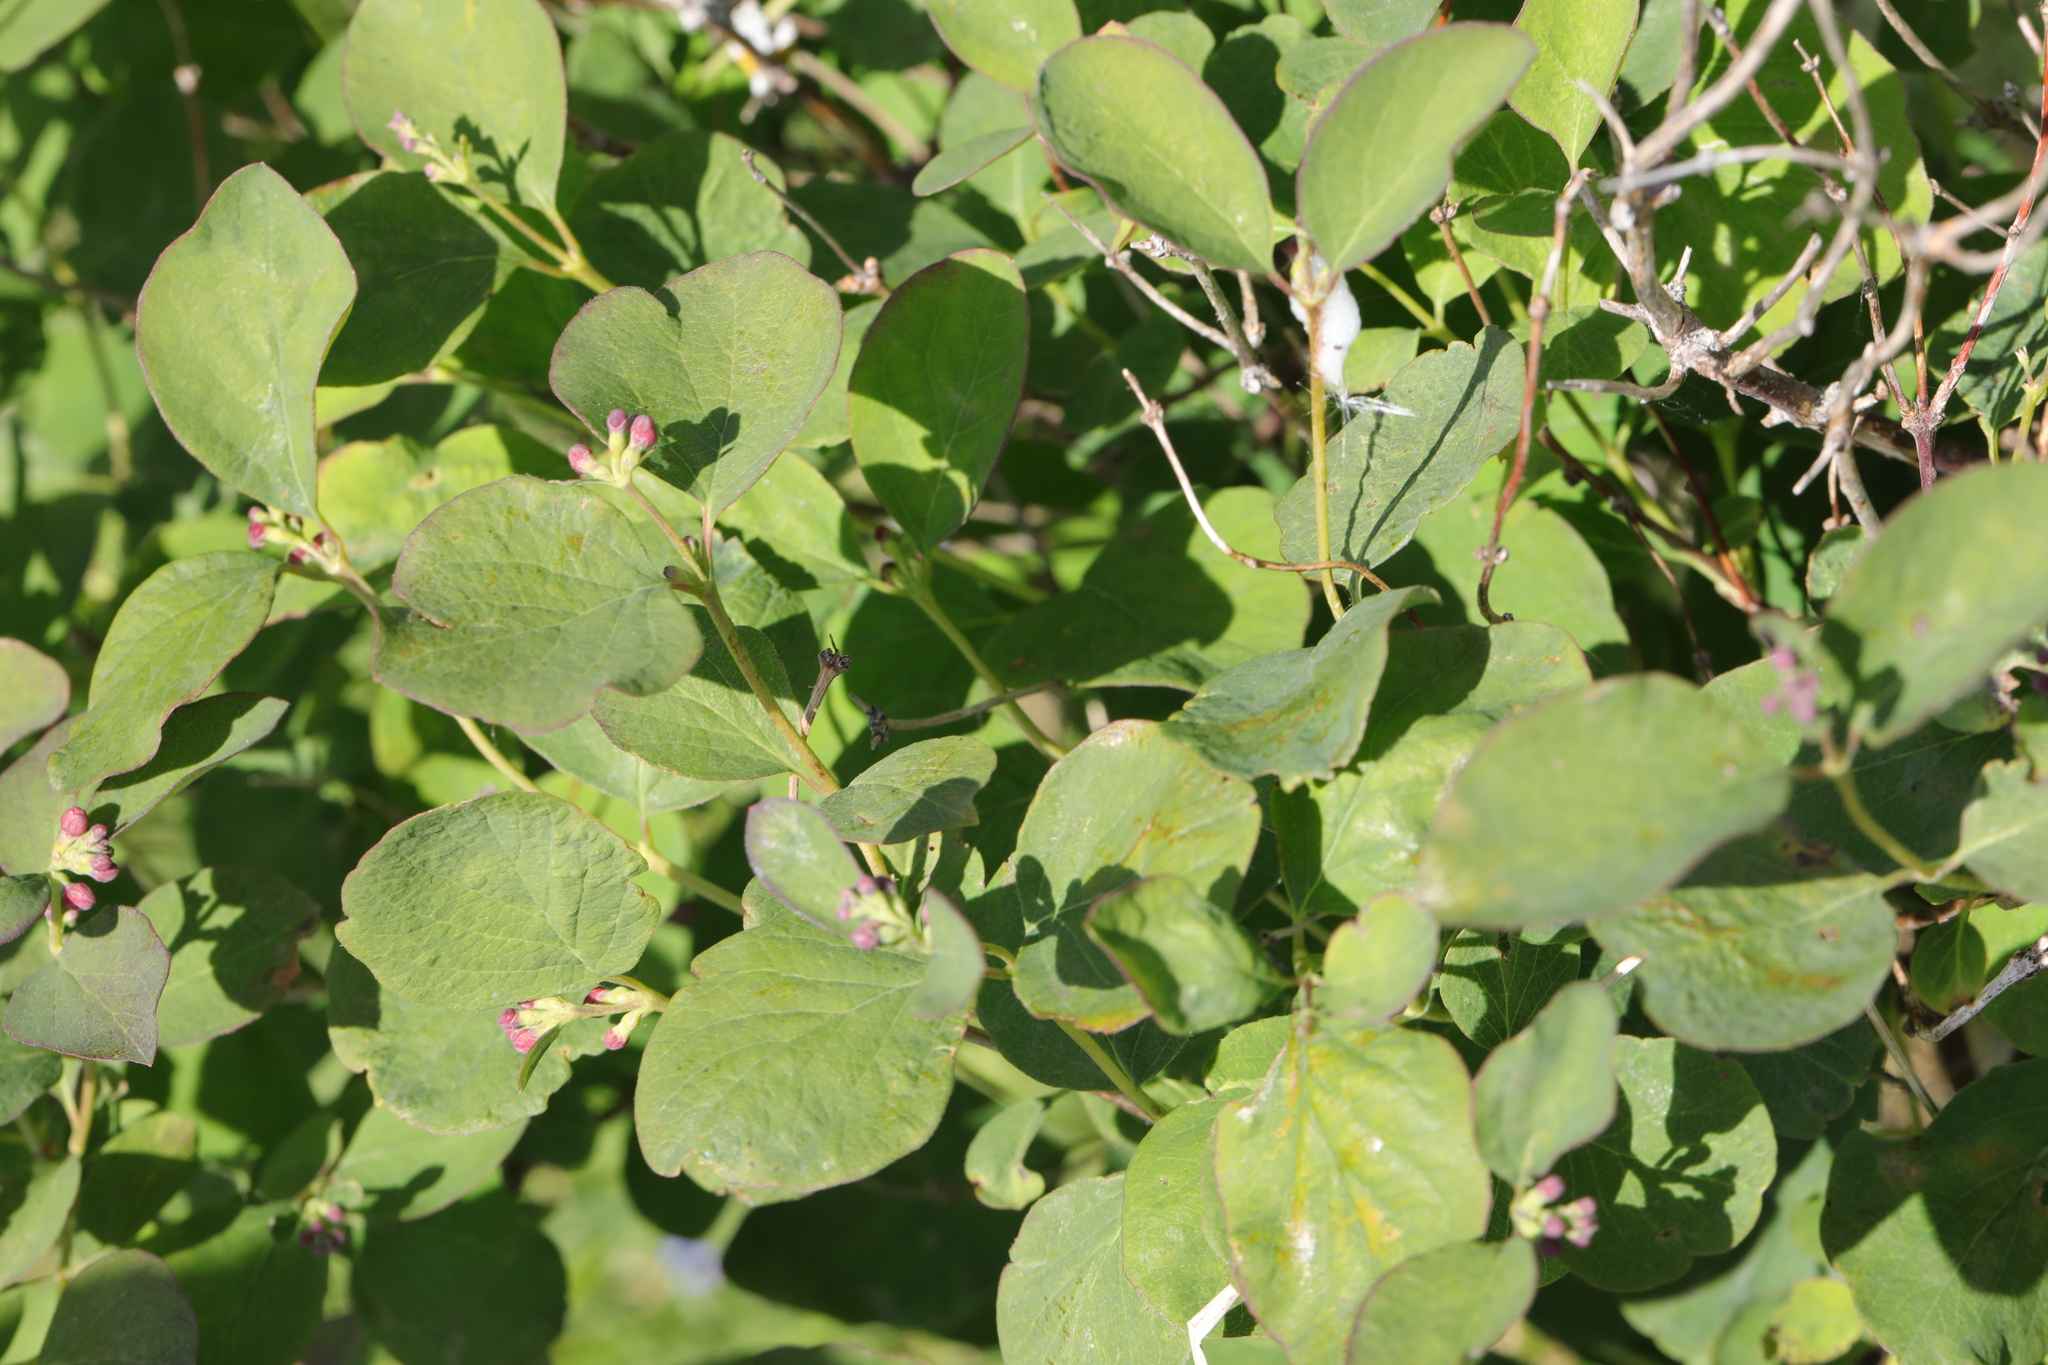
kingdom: Plantae
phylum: Tracheophyta
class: Magnoliopsida
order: Dipsacales
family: Caprifoliaceae
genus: Symphoricarpos
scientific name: Symphoricarpos albus
